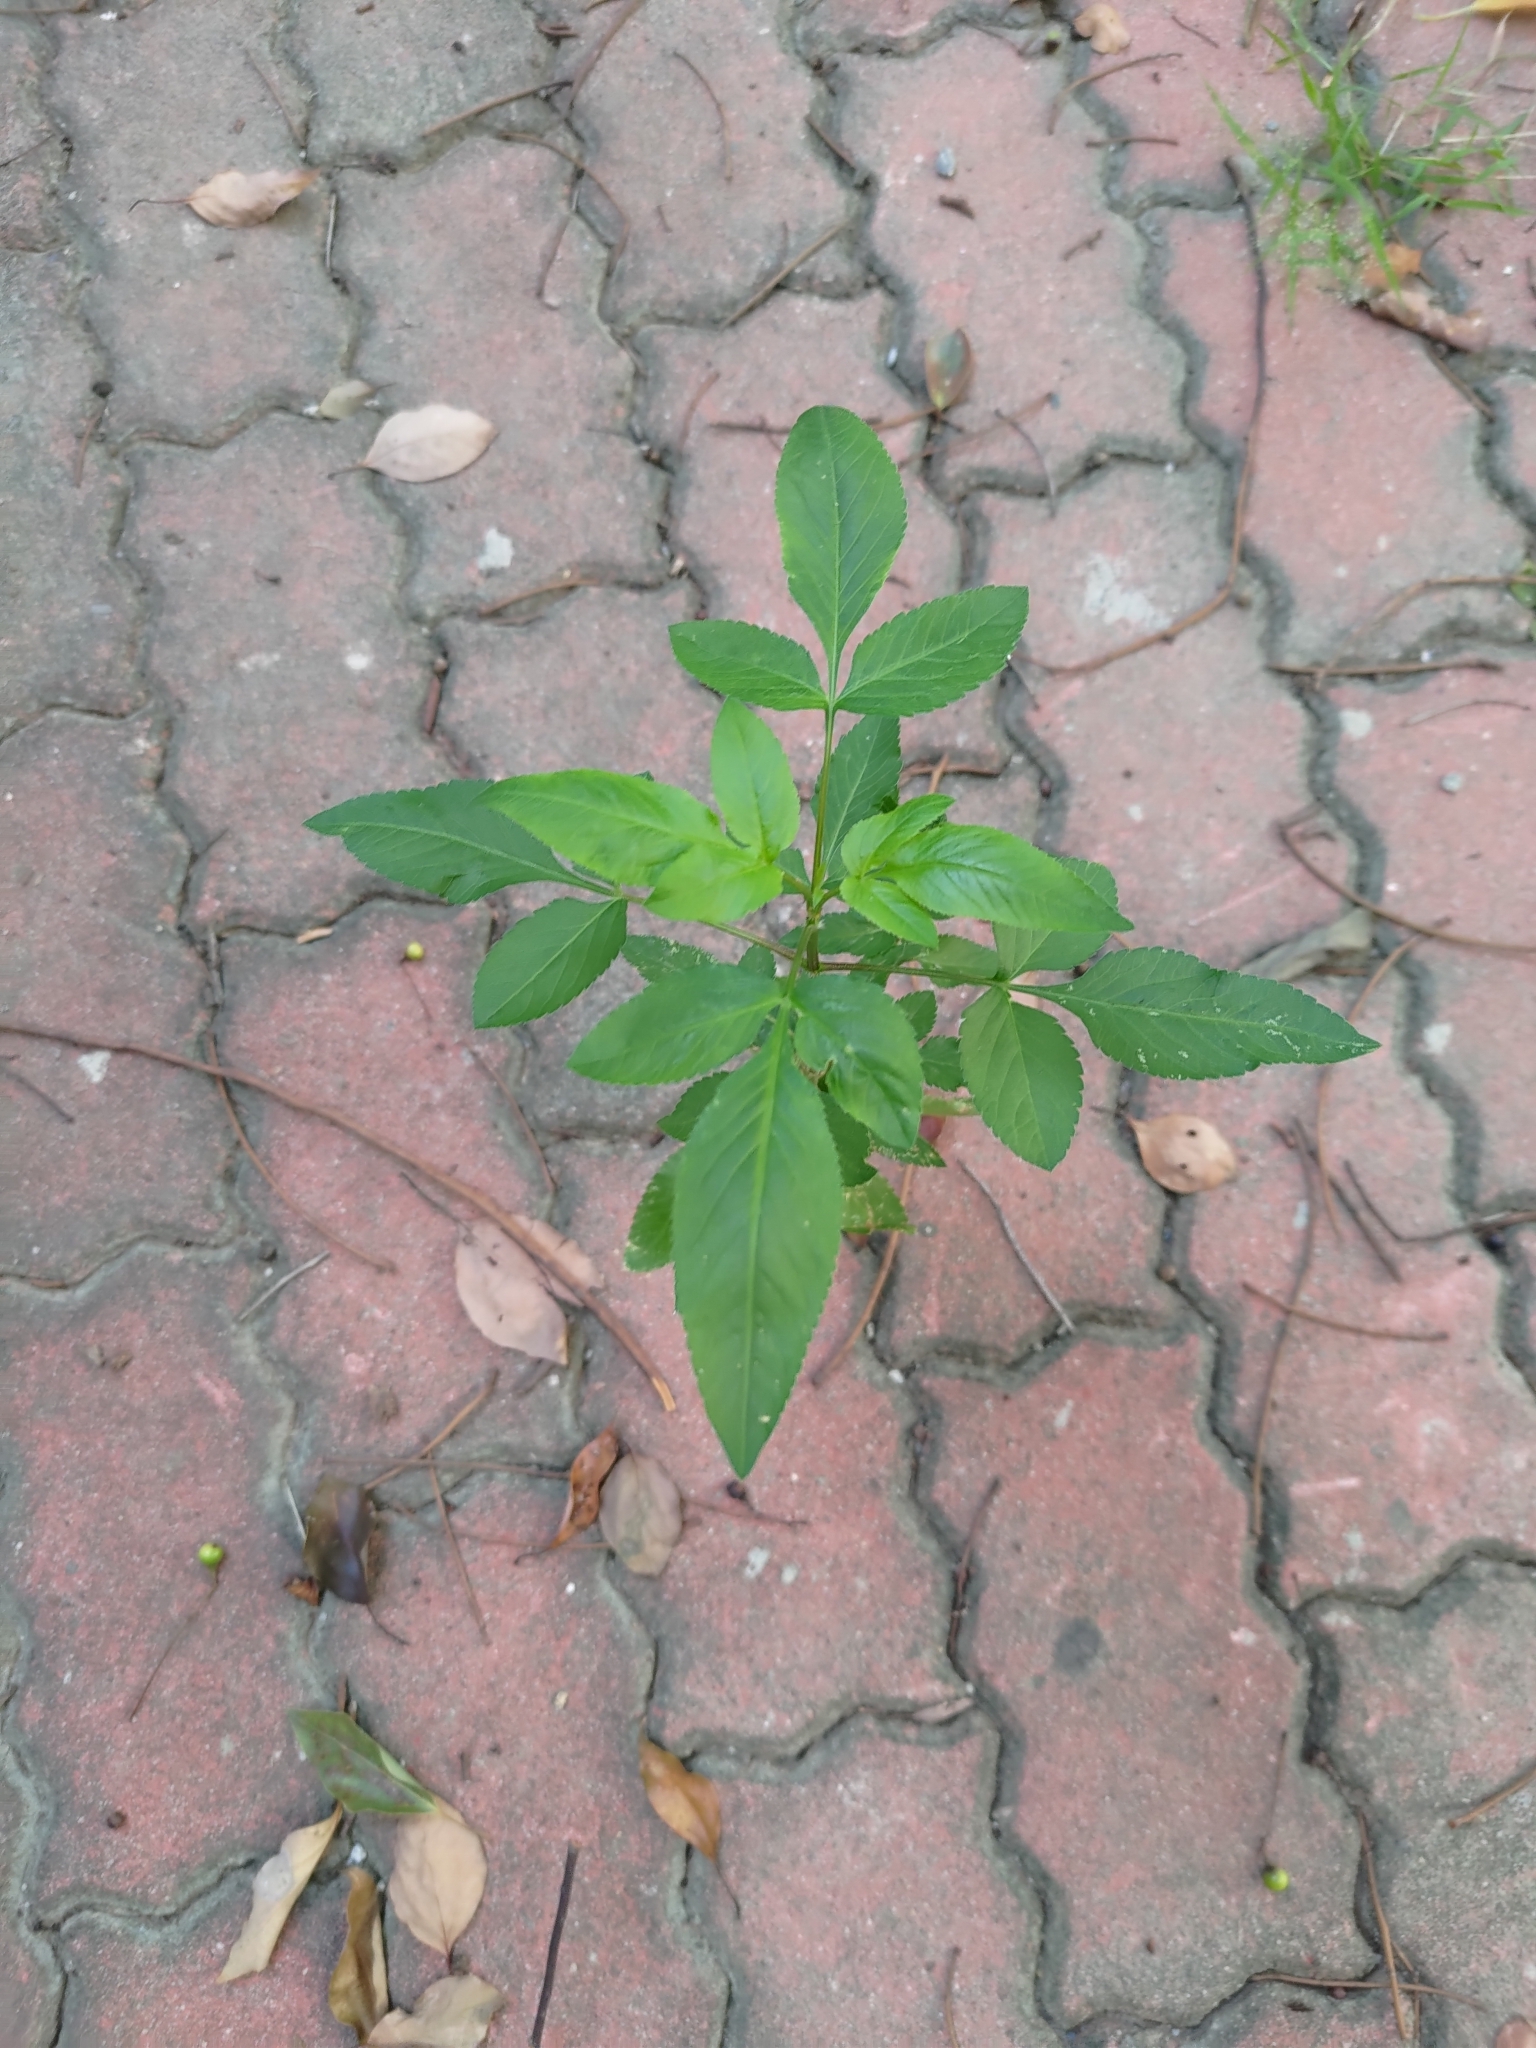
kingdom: Plantae
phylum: Tracheophyta
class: Magnoliopsida
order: Asterales
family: Asteraceae
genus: Bidens
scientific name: Bidens alba
